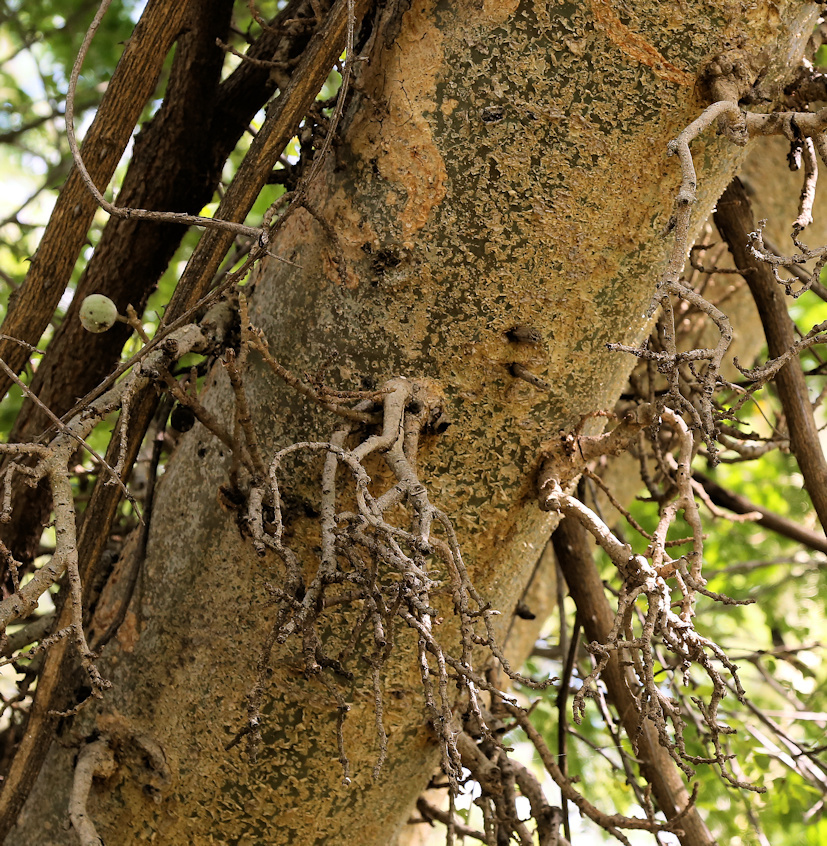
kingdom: Plantae
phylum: Tracheophyta
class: Magnoliopsida
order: Rosales
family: Moraceae
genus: Ficus
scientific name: Ficus sycomorus
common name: Sycomore
